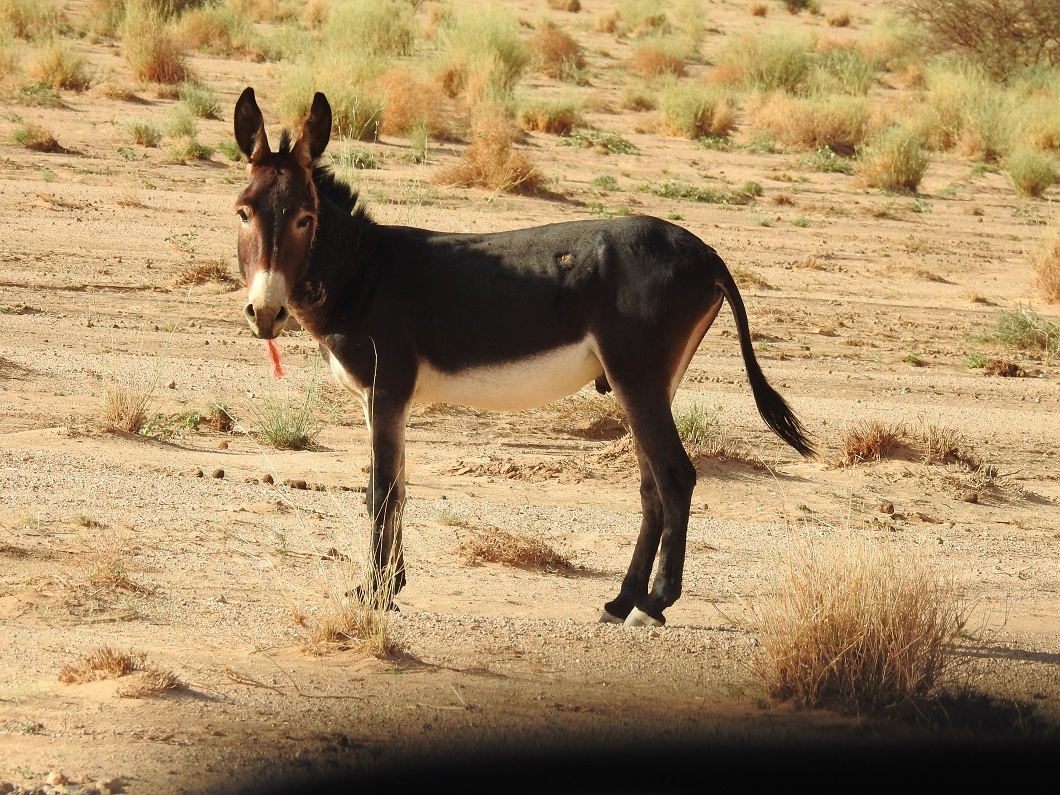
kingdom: Animalia
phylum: Chordata
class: Mammalia
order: Perissodactyla
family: Equidae
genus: Equus
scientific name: Equus asinus
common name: Ass
